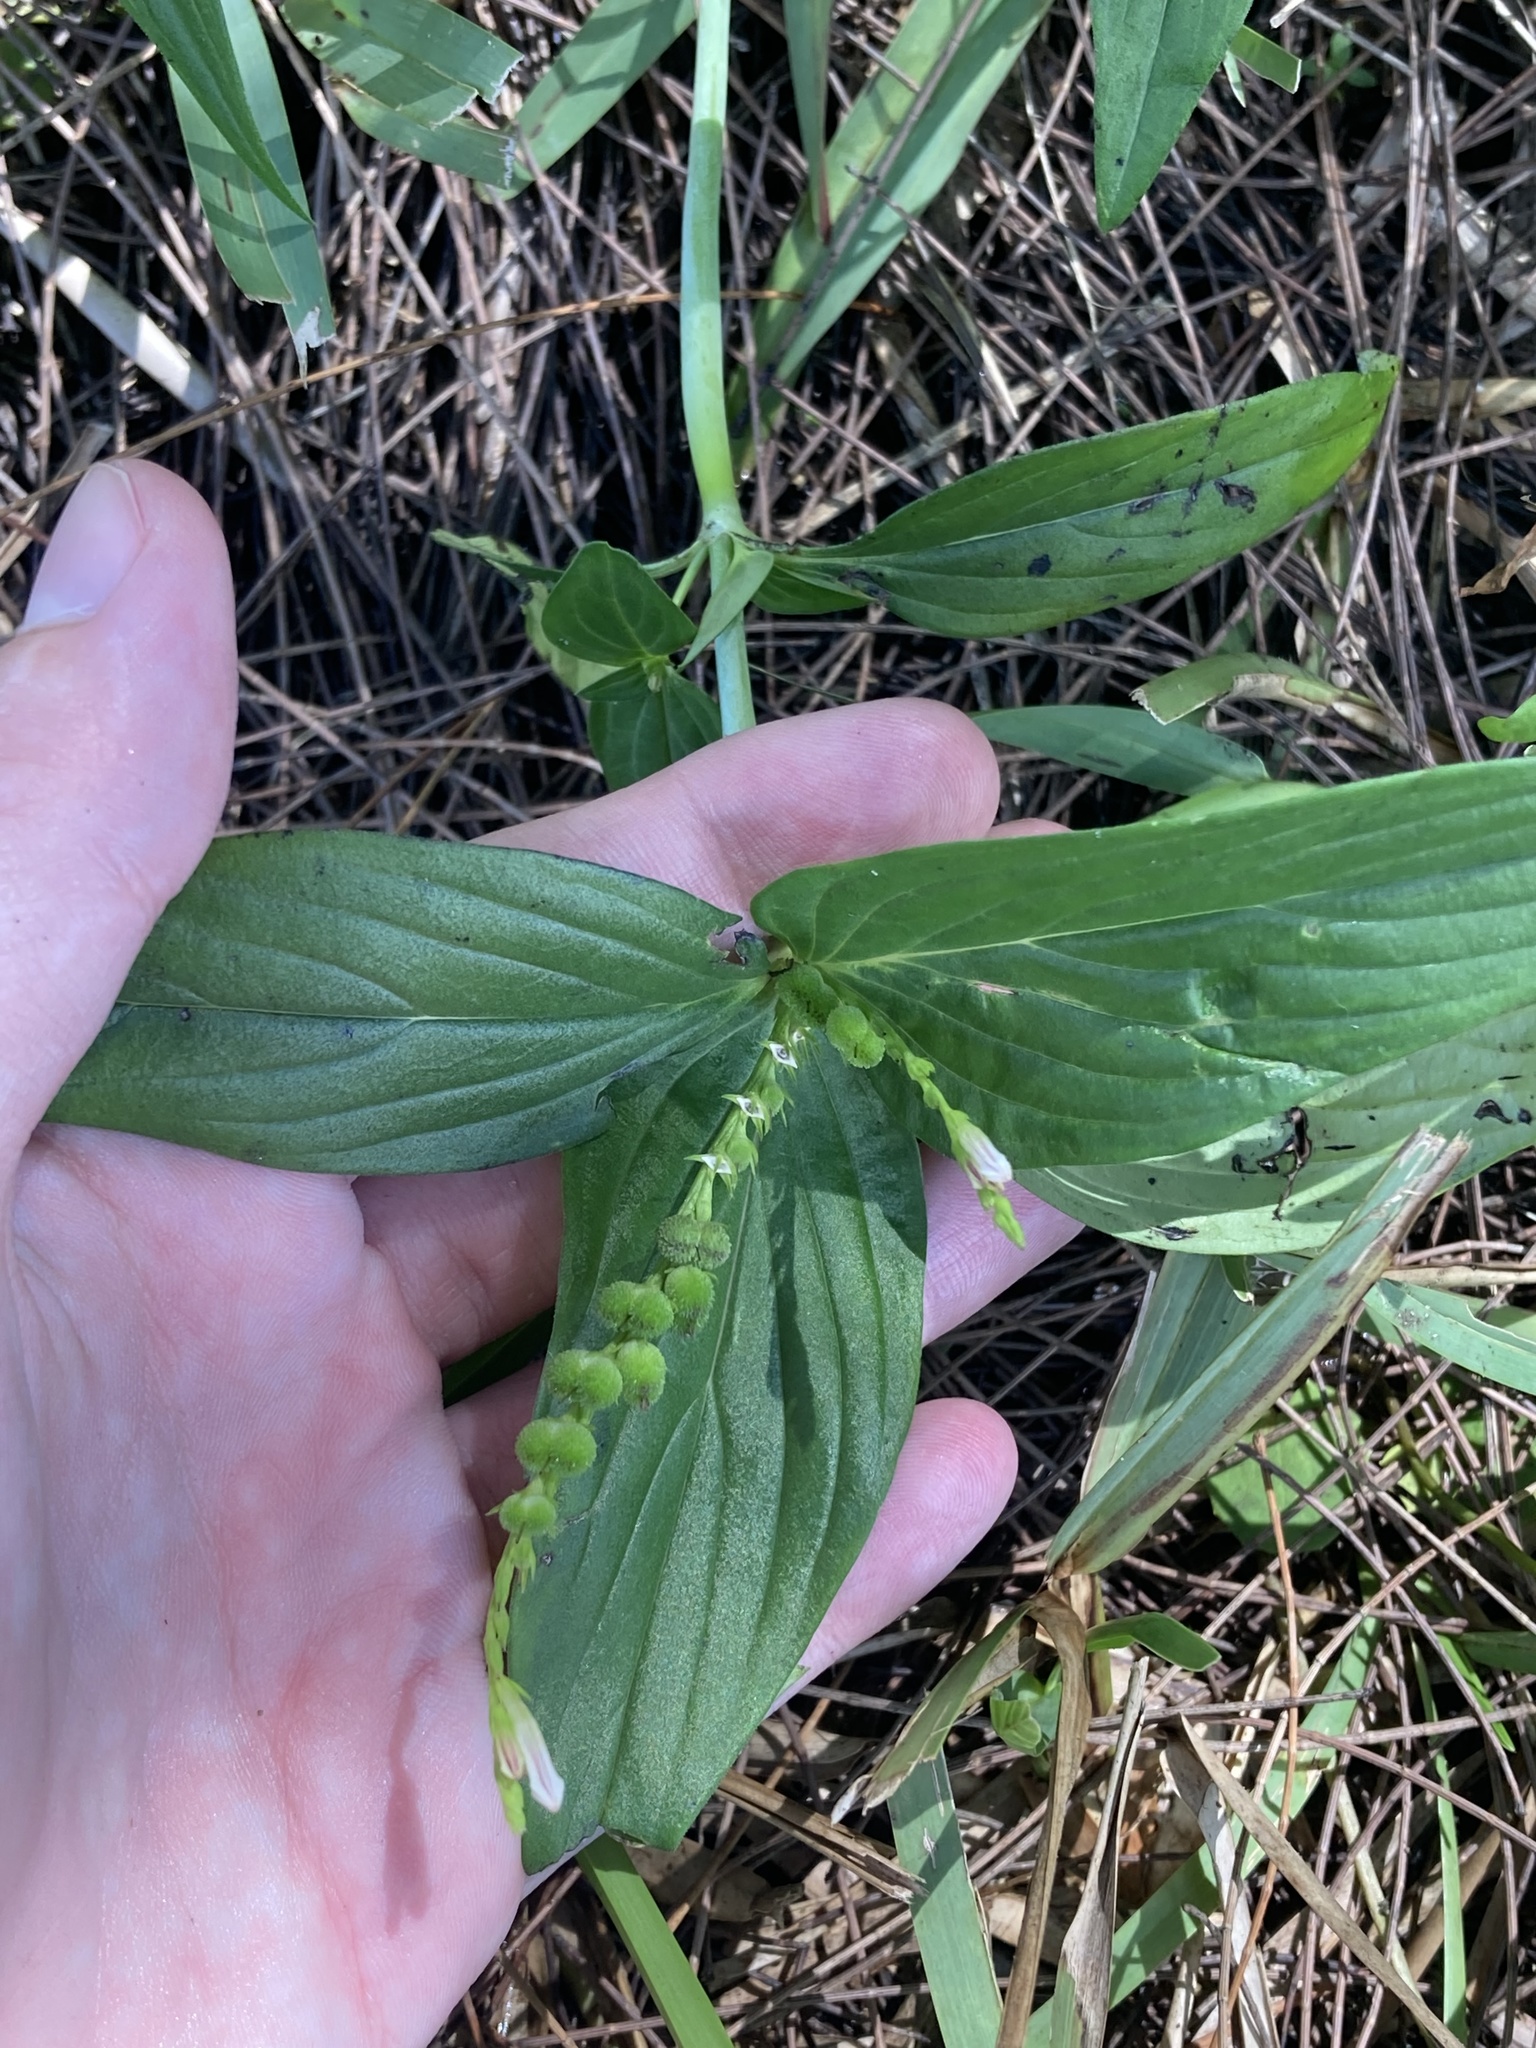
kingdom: Plantae
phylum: Tracheophyta
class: Magnoliopsida
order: Gentianales
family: Loganiaceae
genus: Spigelia
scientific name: Spigelia anthelmia
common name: West indian-pink
